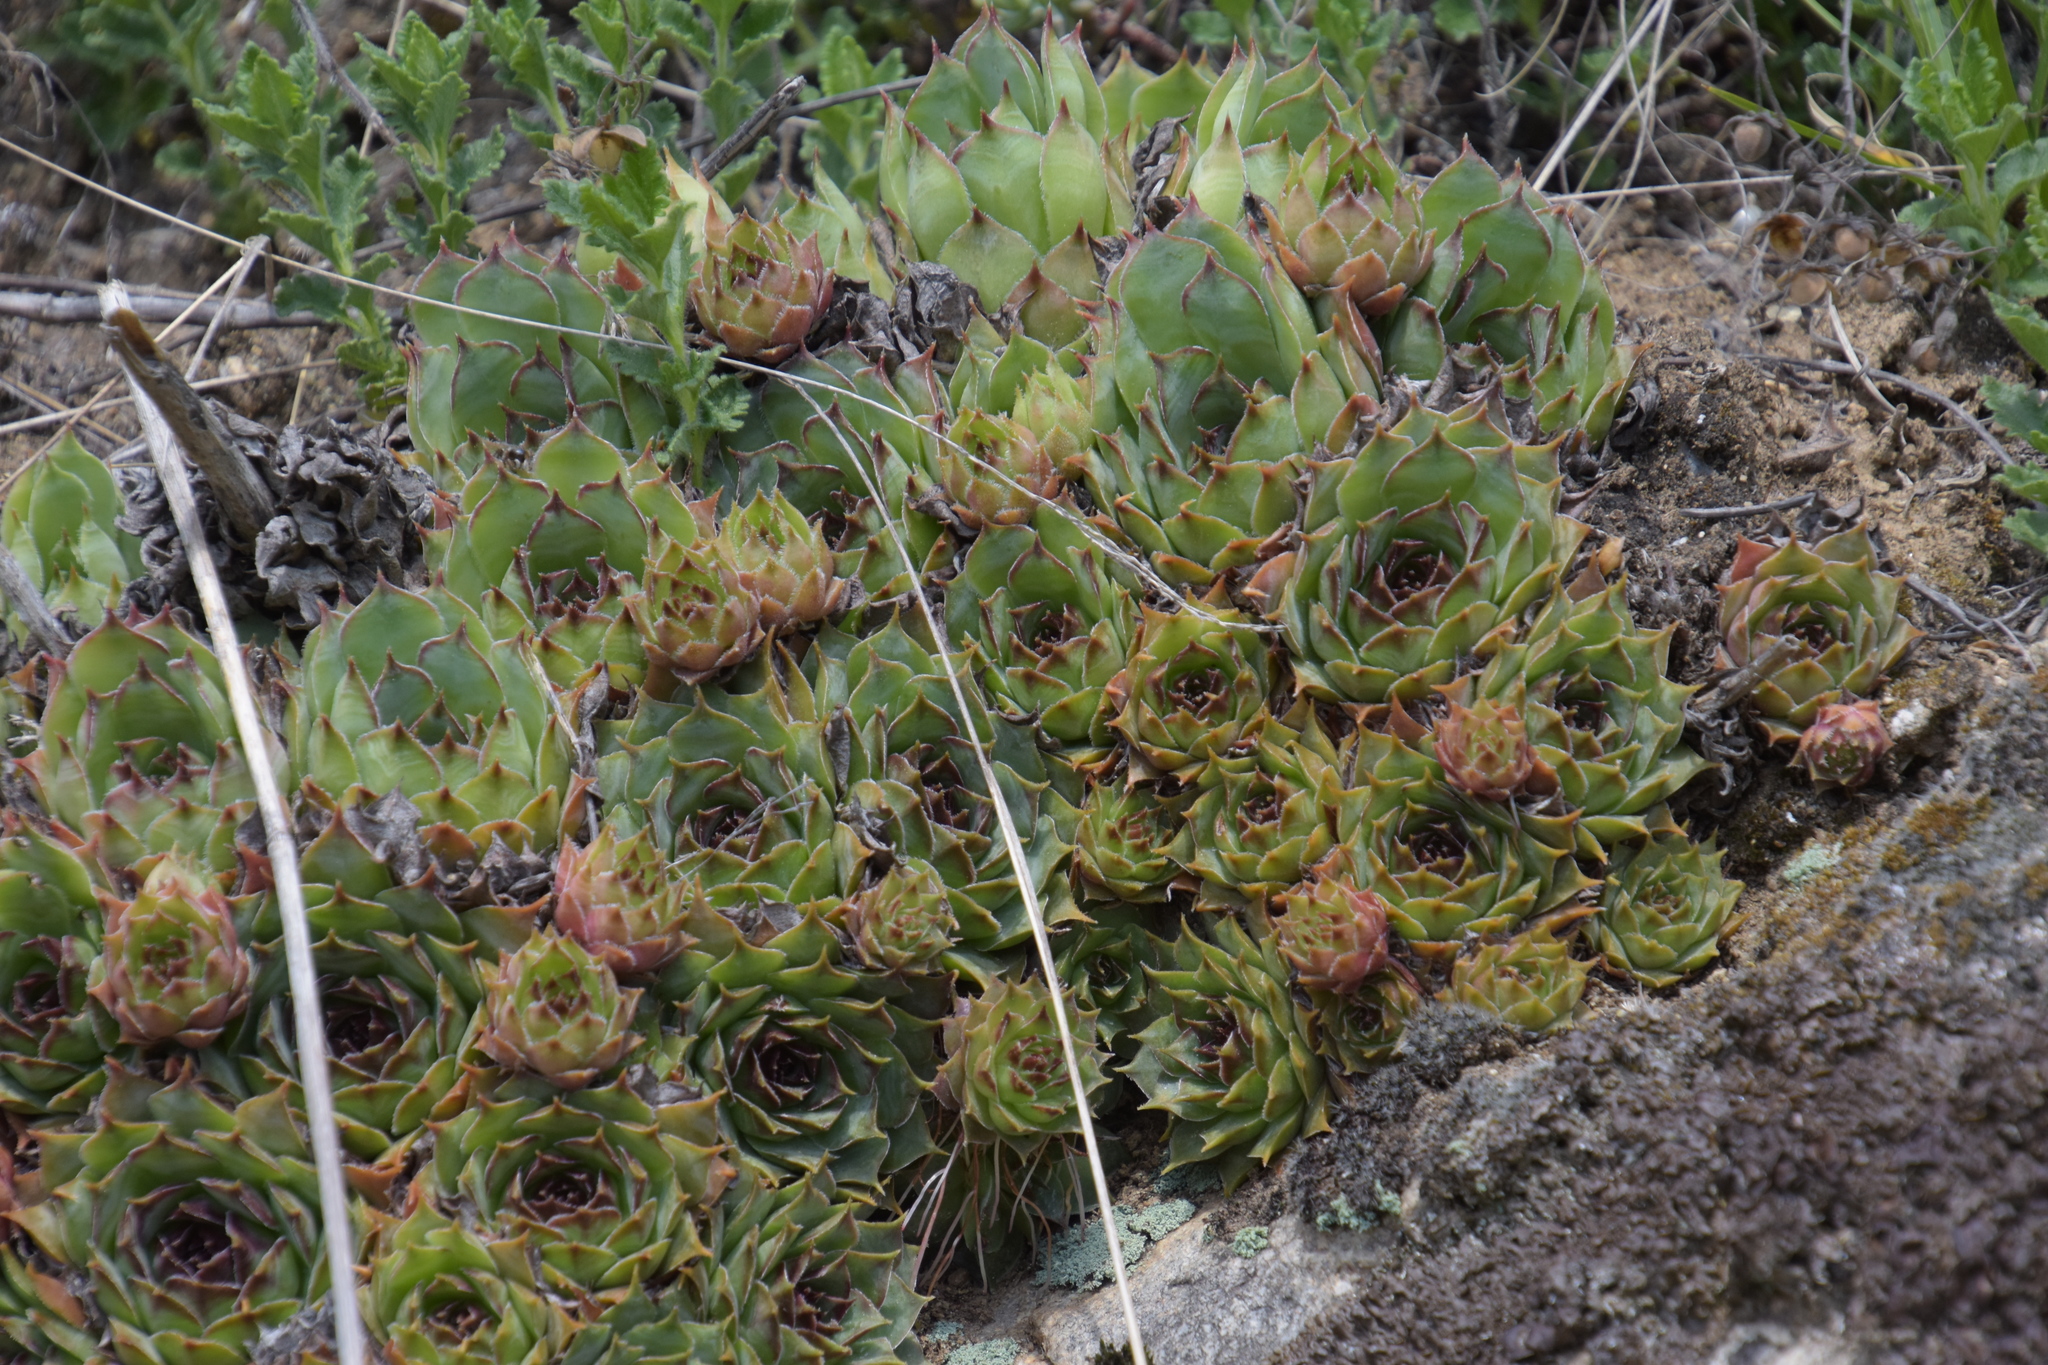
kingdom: Plantae
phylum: Tracheophyta
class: Magnoliopsida
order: Saxifragales
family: Crassulaceae
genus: Sempervivum
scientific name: Sempervivum tectorum
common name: House-leek
